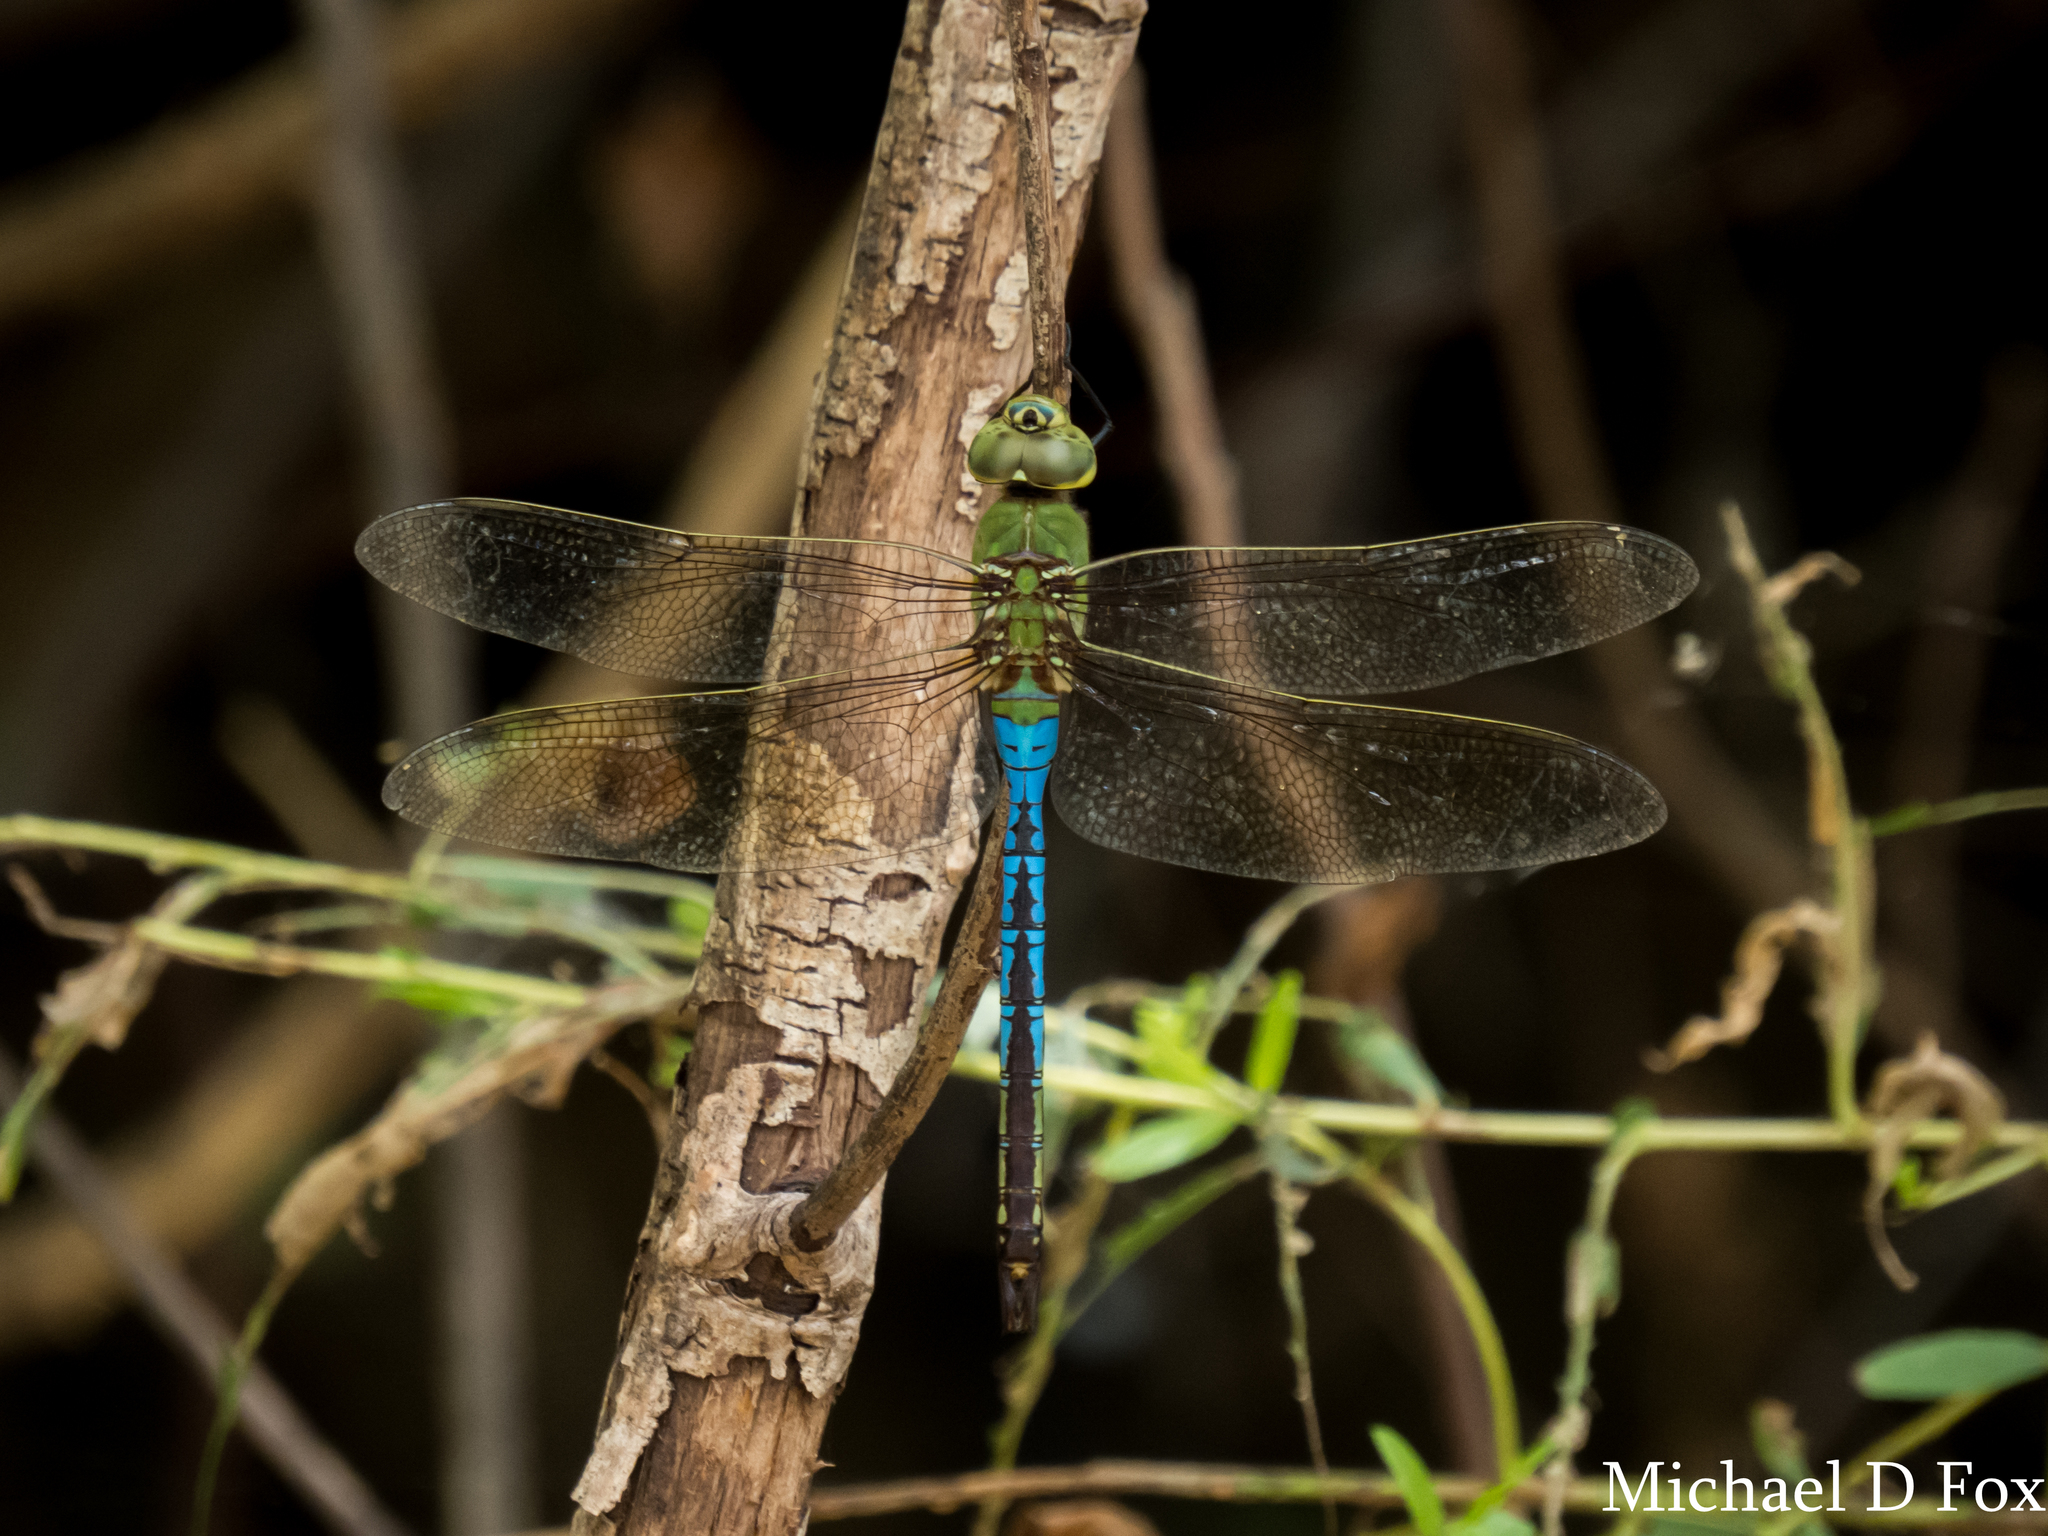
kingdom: Animalia
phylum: Arthropoda
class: Insecta
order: Odonata
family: Aeshnidae
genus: Anax
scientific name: Anax junius
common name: Common green darner
